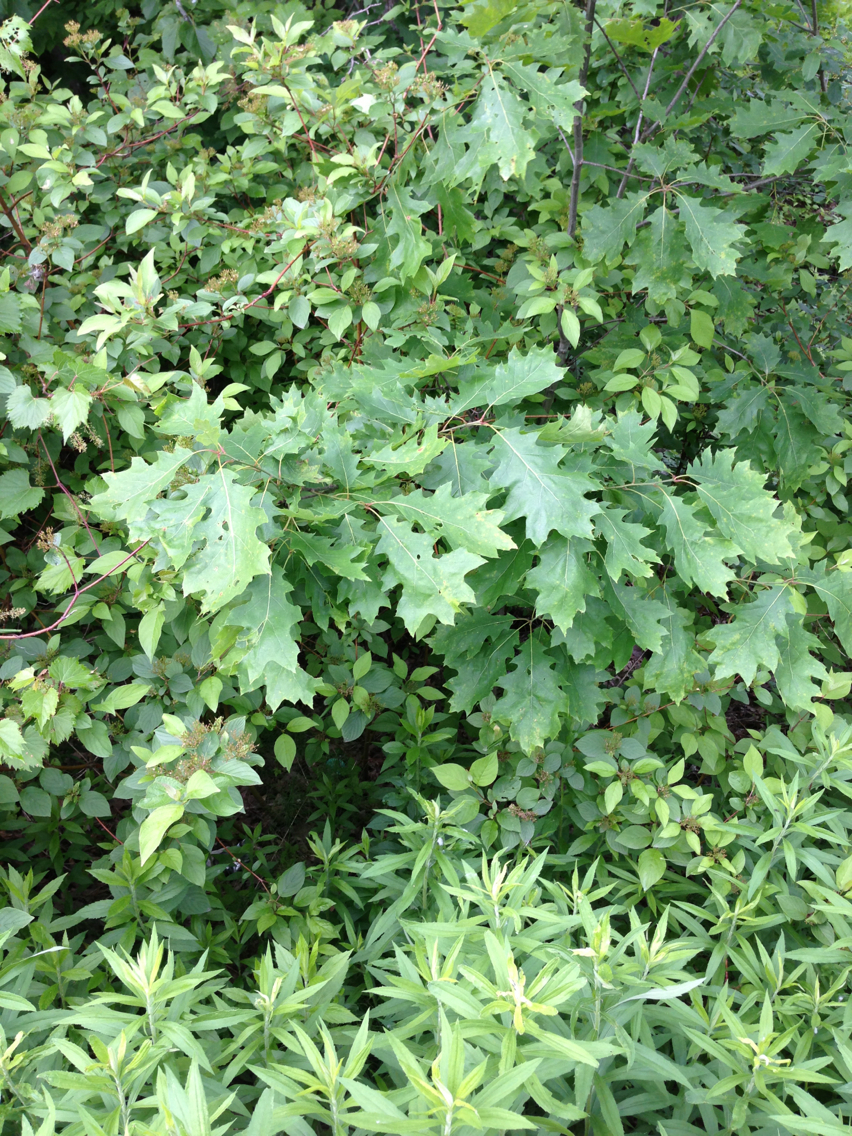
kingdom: Plantae
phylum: Tracheophyta
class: Magnoliopsida
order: Fagales
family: Fagaceae
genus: Quercus
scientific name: Quercus rubra
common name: Red oak
